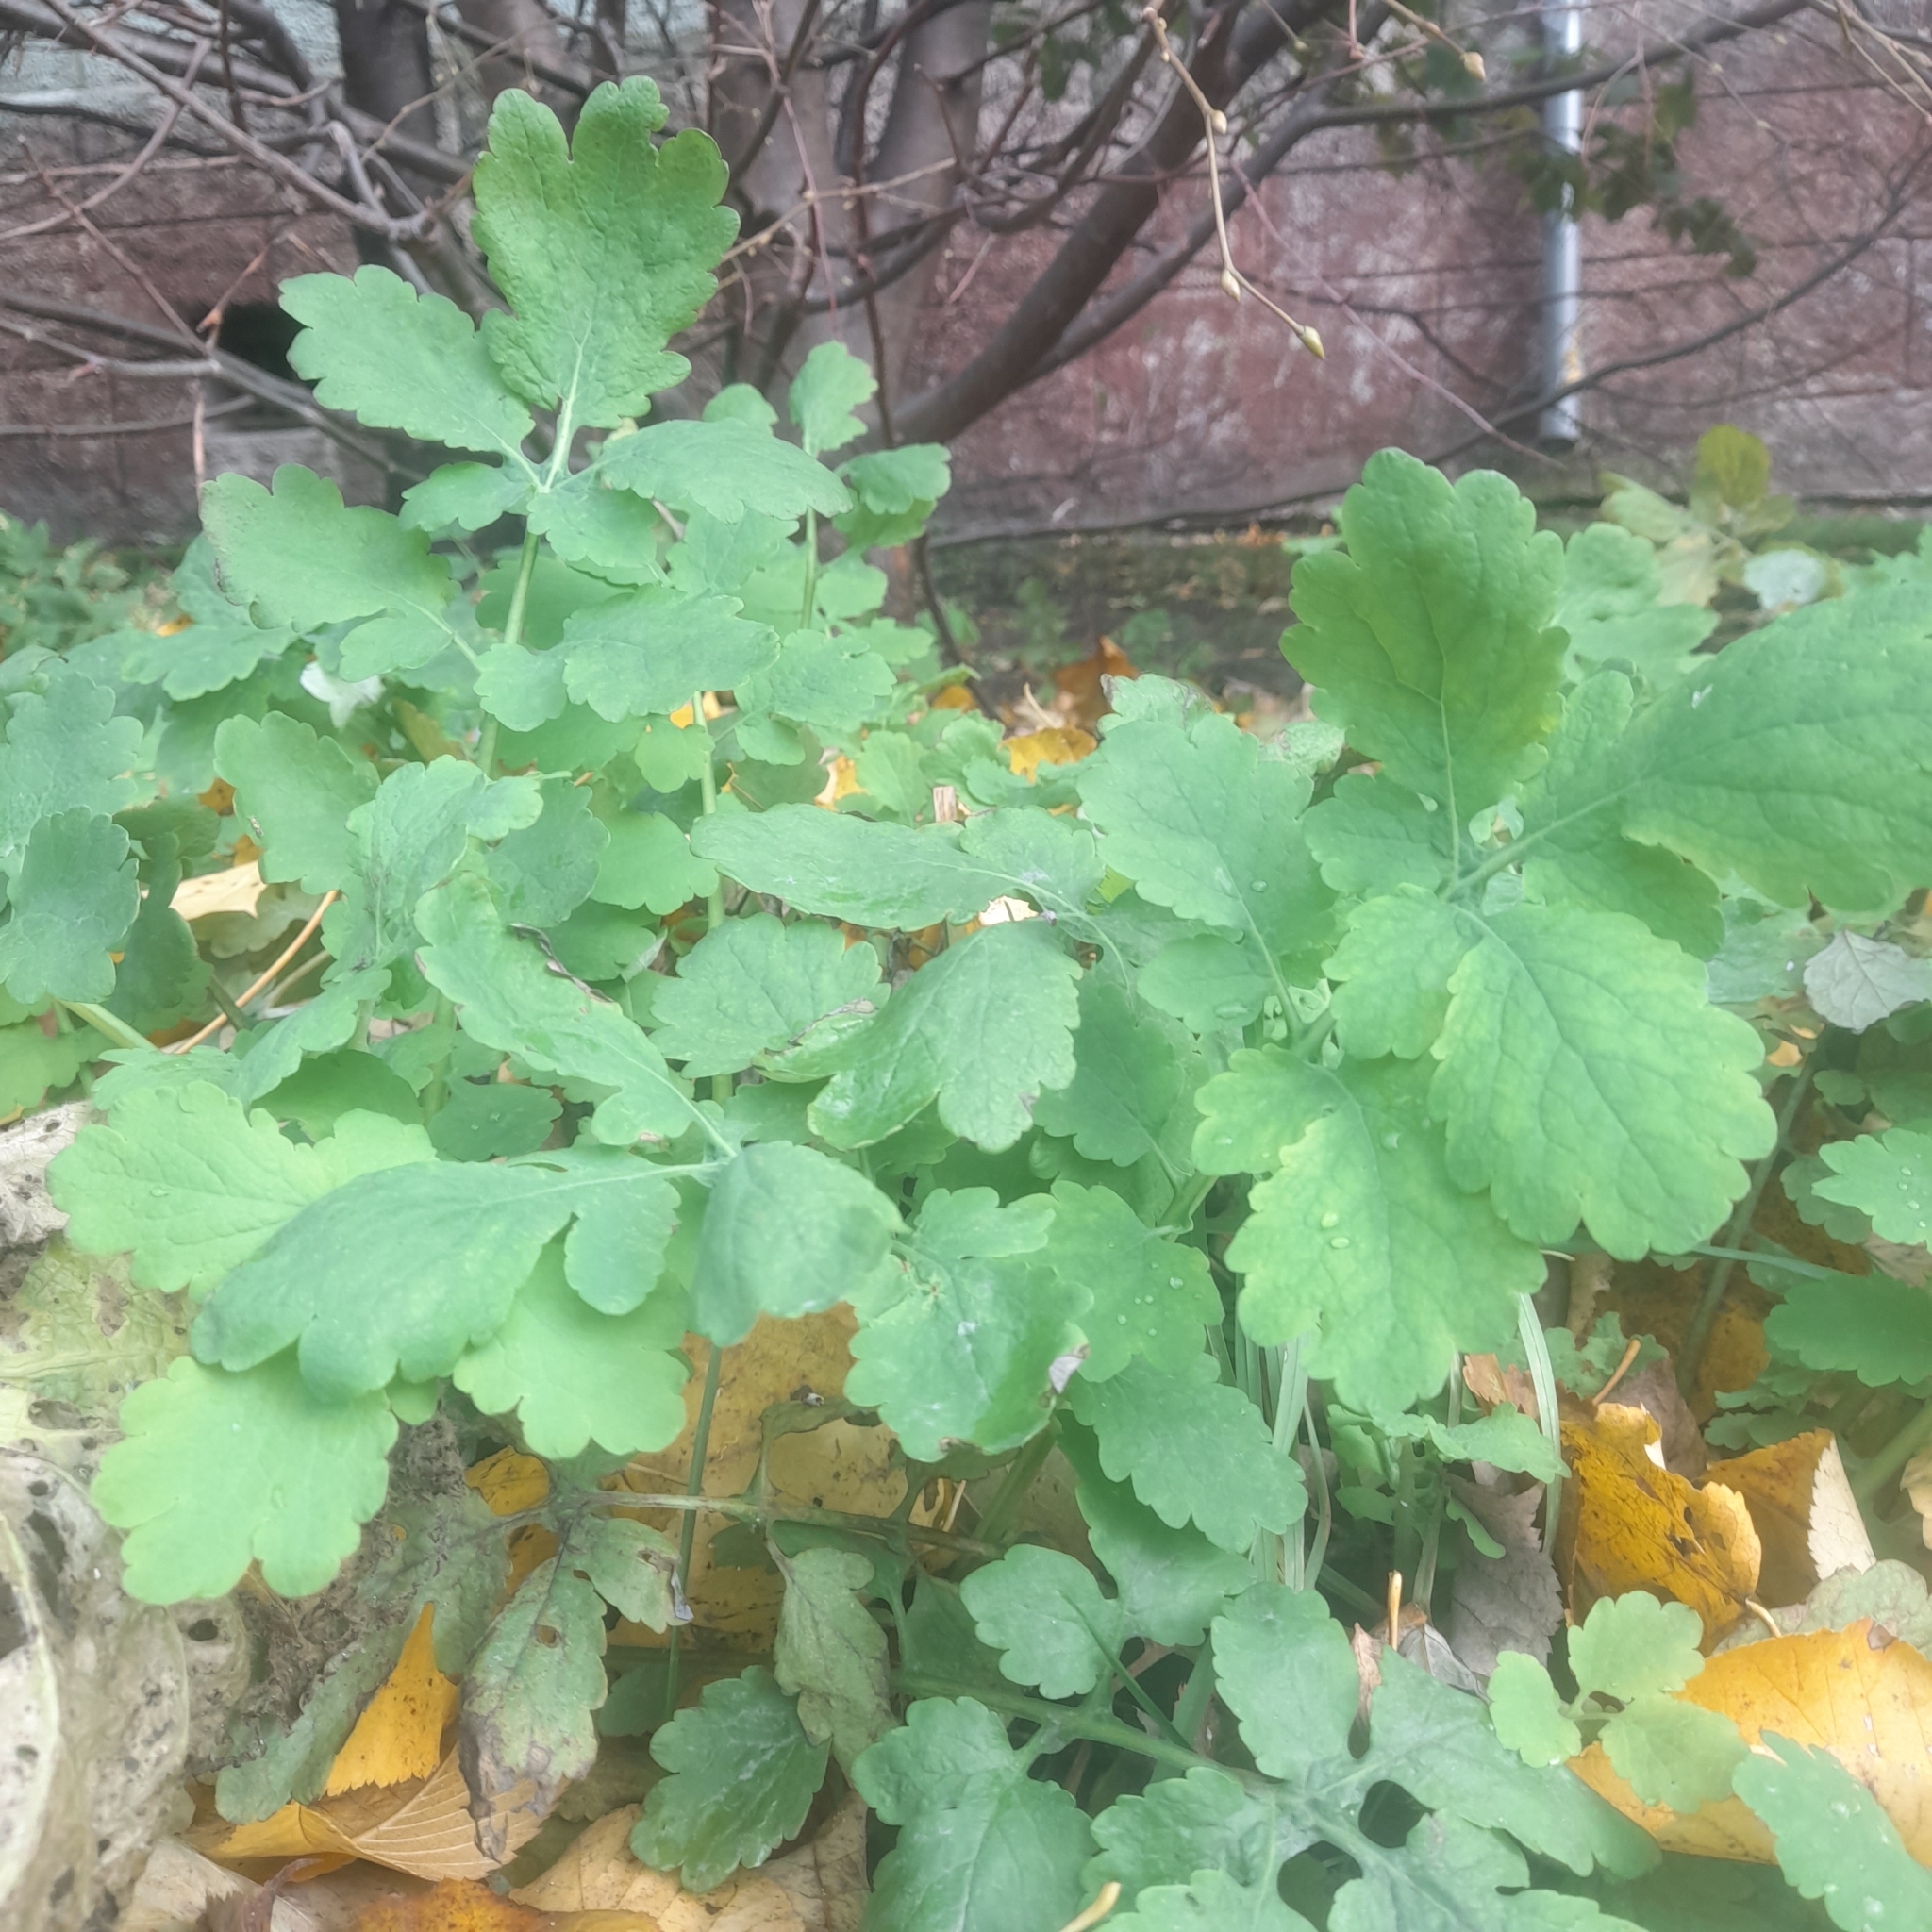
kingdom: Plantae
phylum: Tracheophyta
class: Magnoliopsida
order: Ranunculales
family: Papaveraceae
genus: Chelidonium
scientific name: Chelidonium majus
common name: Greater celandine
